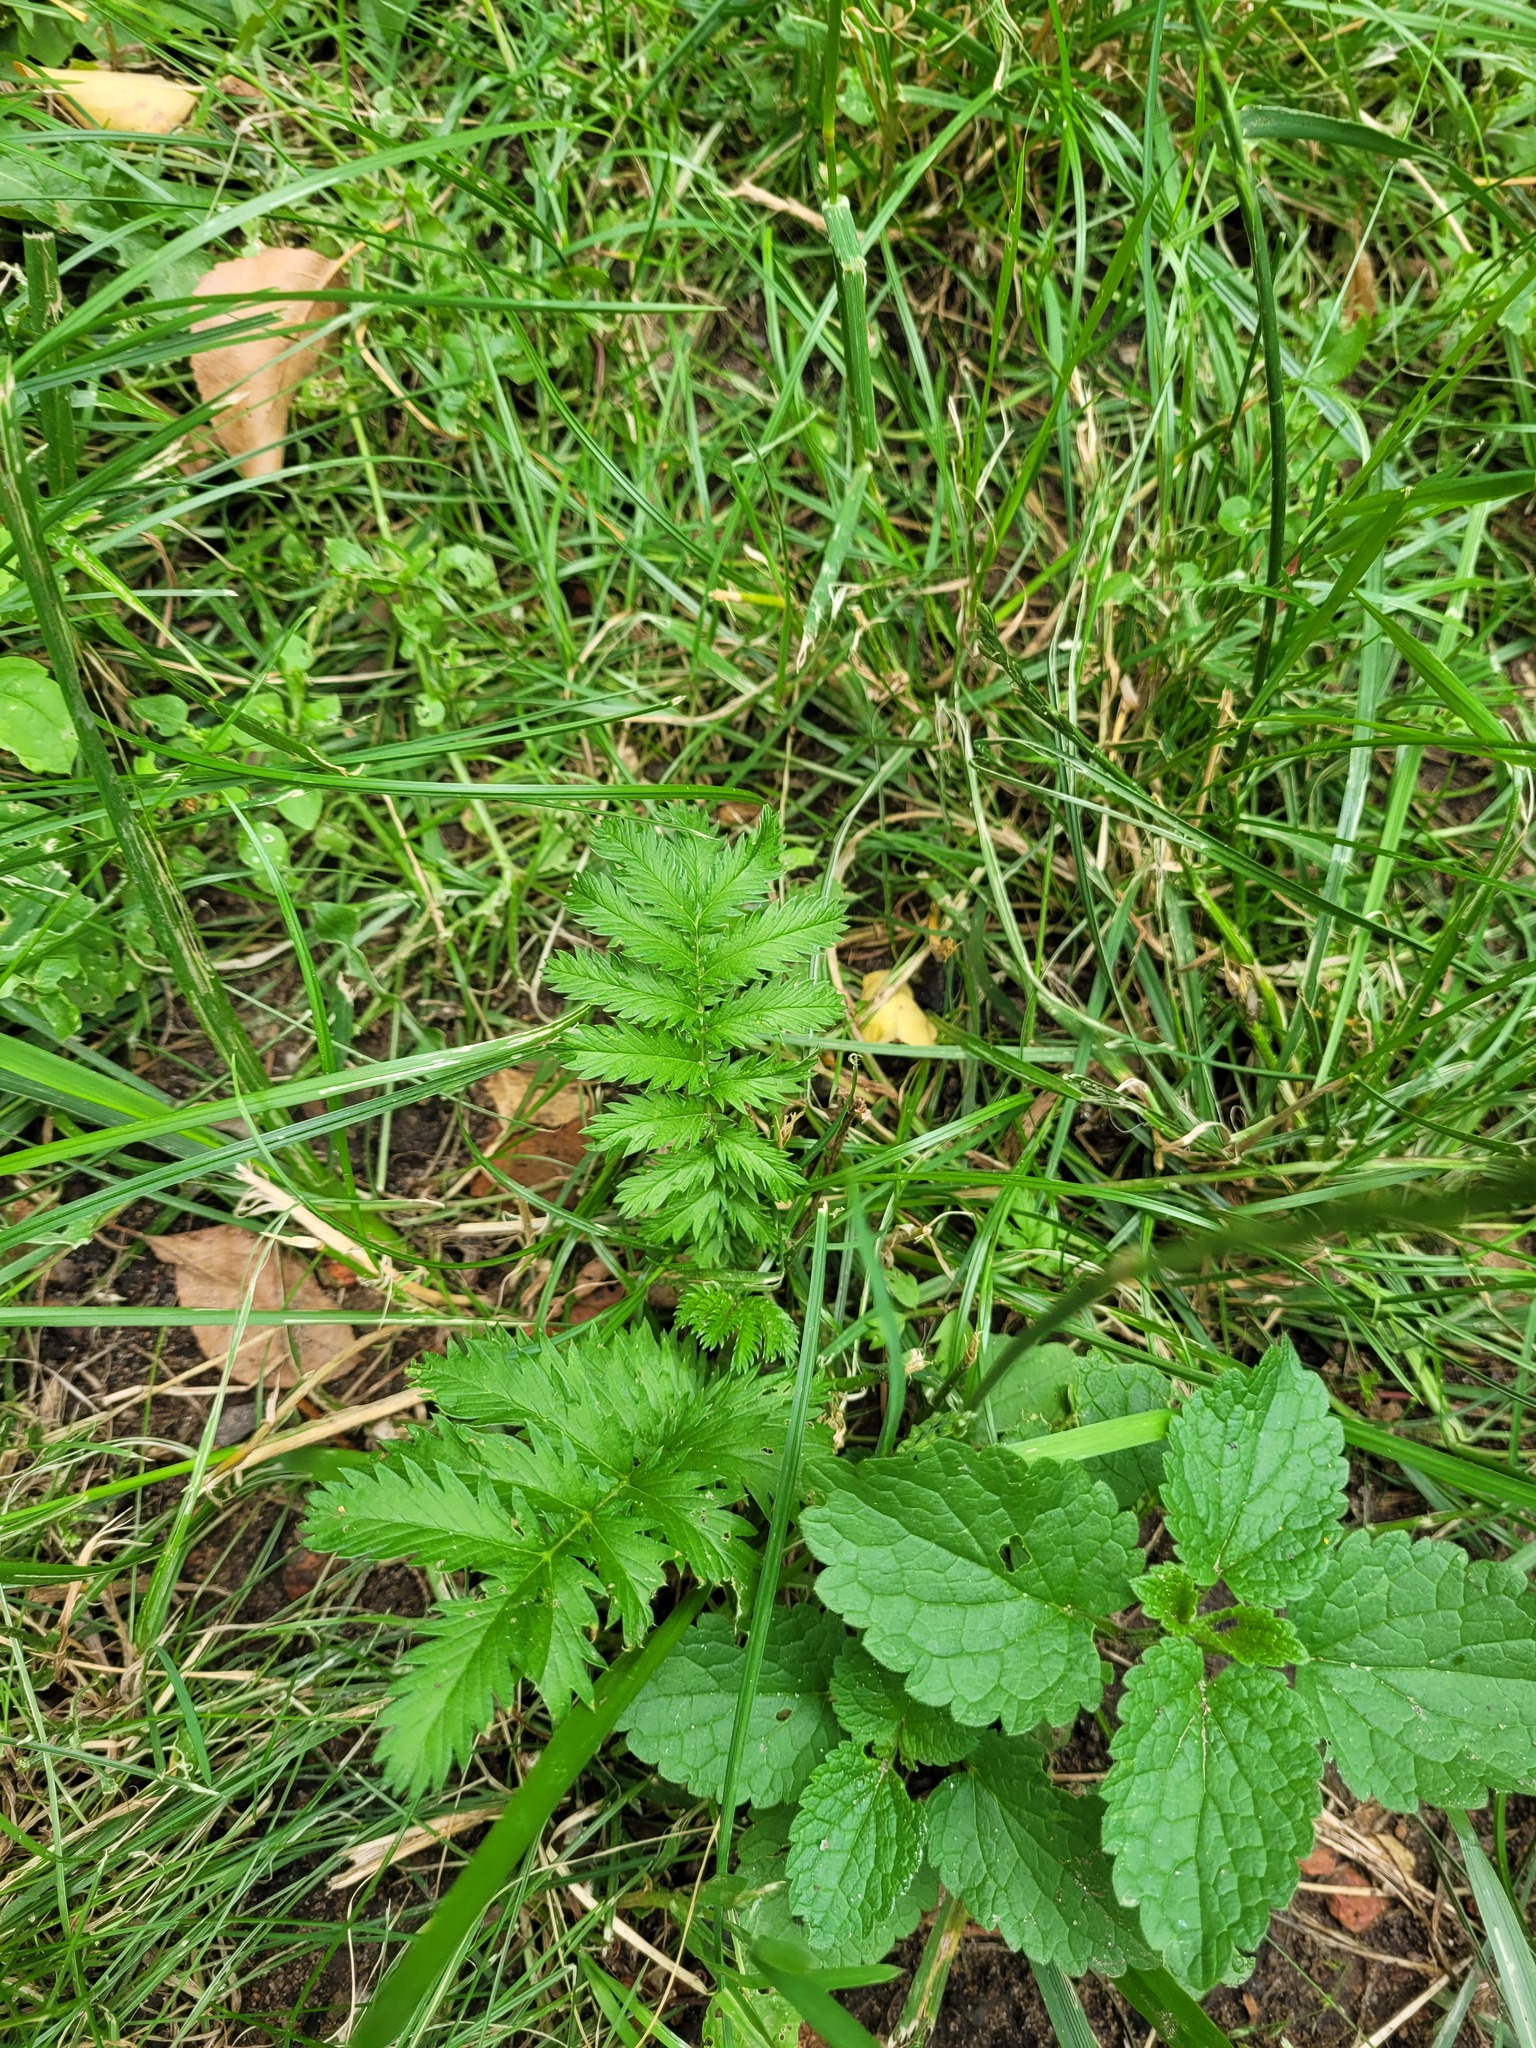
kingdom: Plantae
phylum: Tracheophyta
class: Magnoliopsida
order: Rosales
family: Rosaceae
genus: Argentina
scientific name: Argentina anserina
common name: Common silverweed
